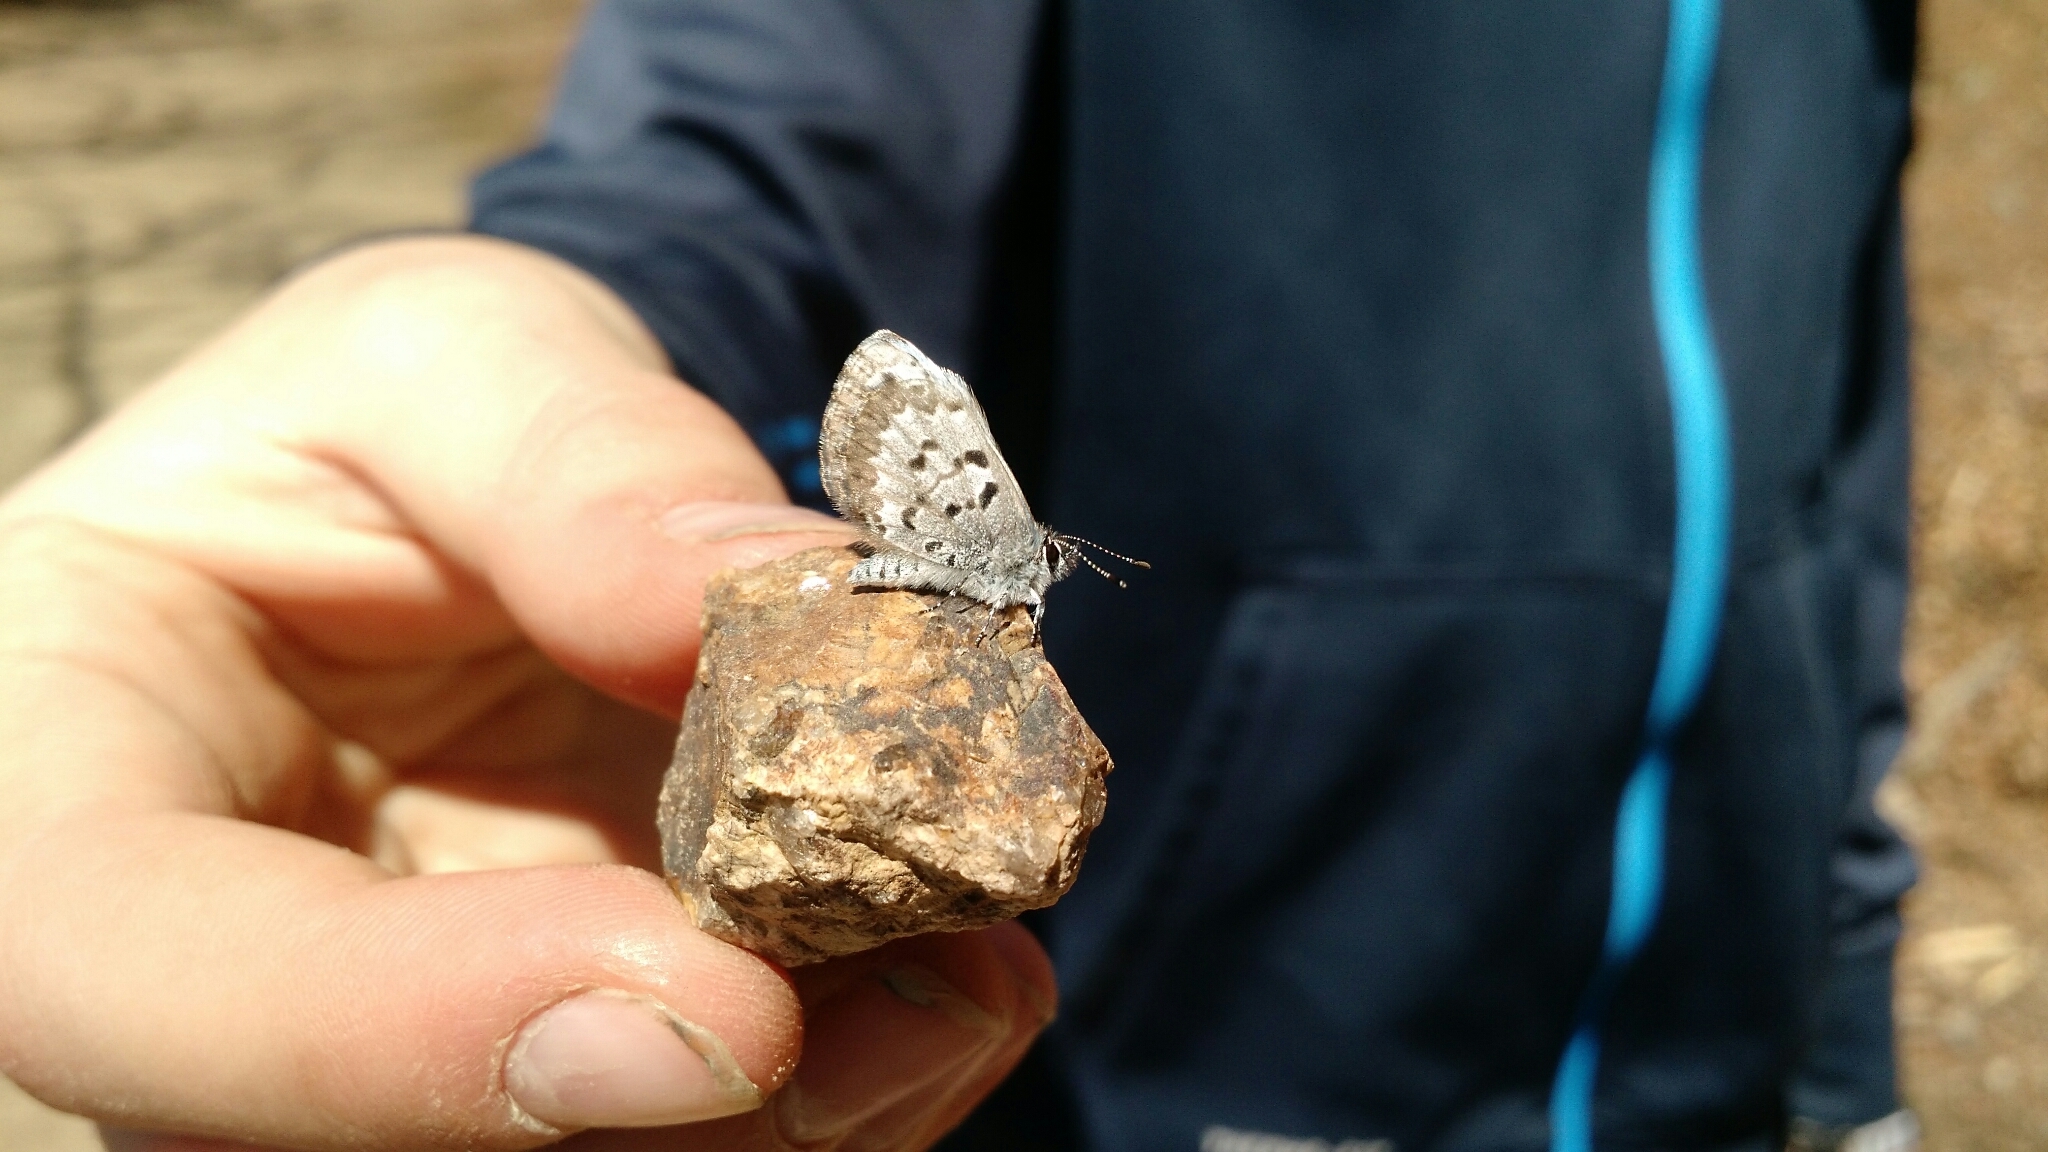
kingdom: Animalia
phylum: Arthropoda
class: Insecta
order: Lepidoptera
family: Lycaenidae
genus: Celastrina
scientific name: Celastrina ladon
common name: Spring azure
